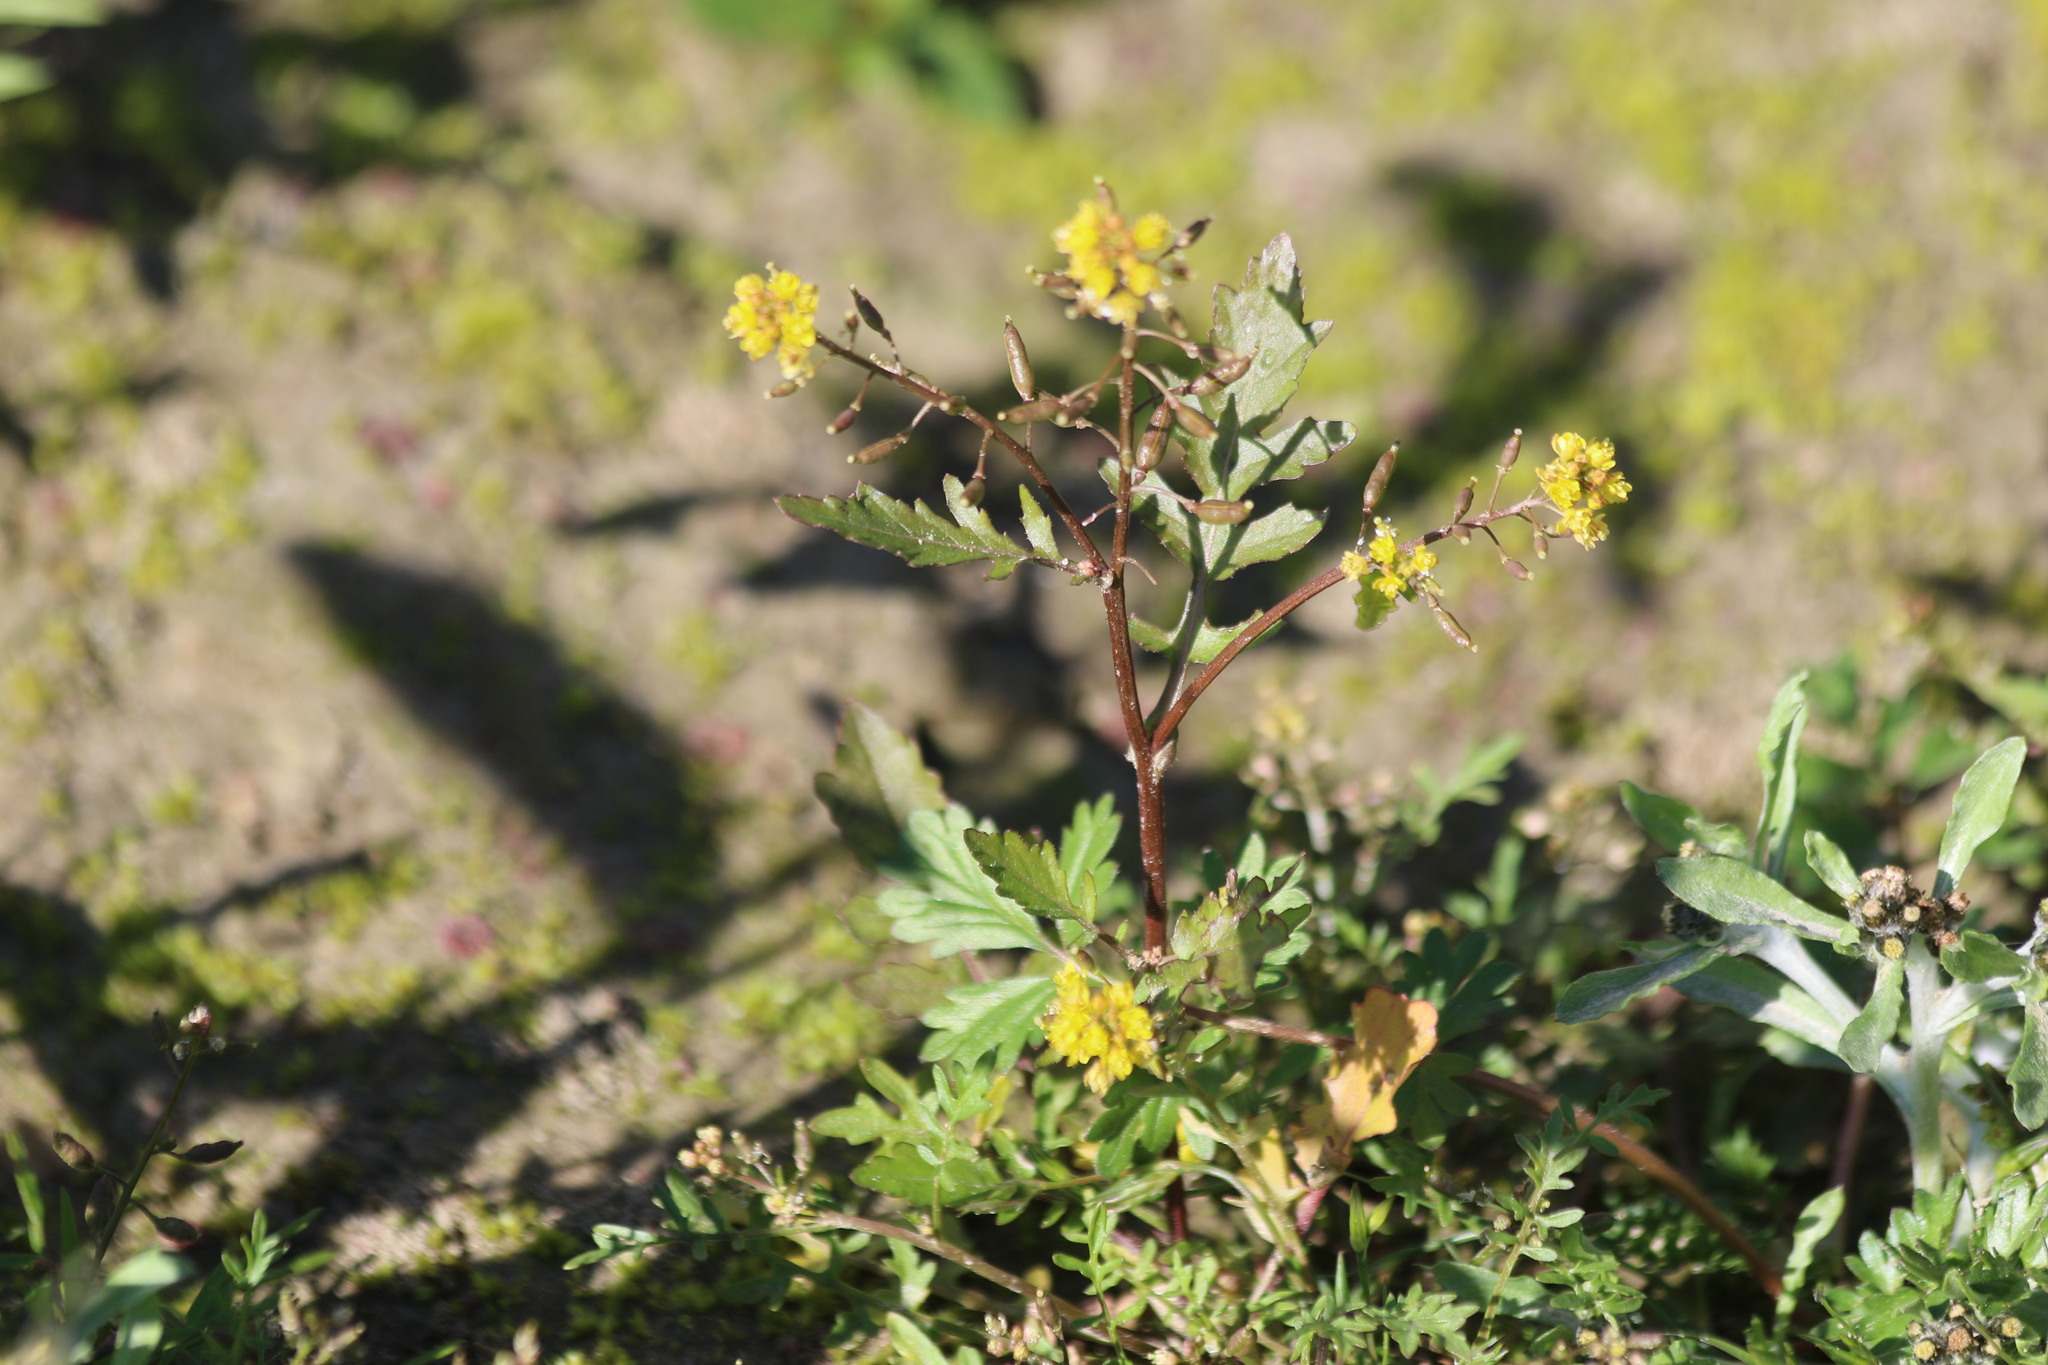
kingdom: Plantae
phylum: Tracheophyta
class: Magnoliopsida
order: Brassicales
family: Brassicaceae
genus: Rorippa
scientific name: Rorippa palustris
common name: Marsh yellow-cress
